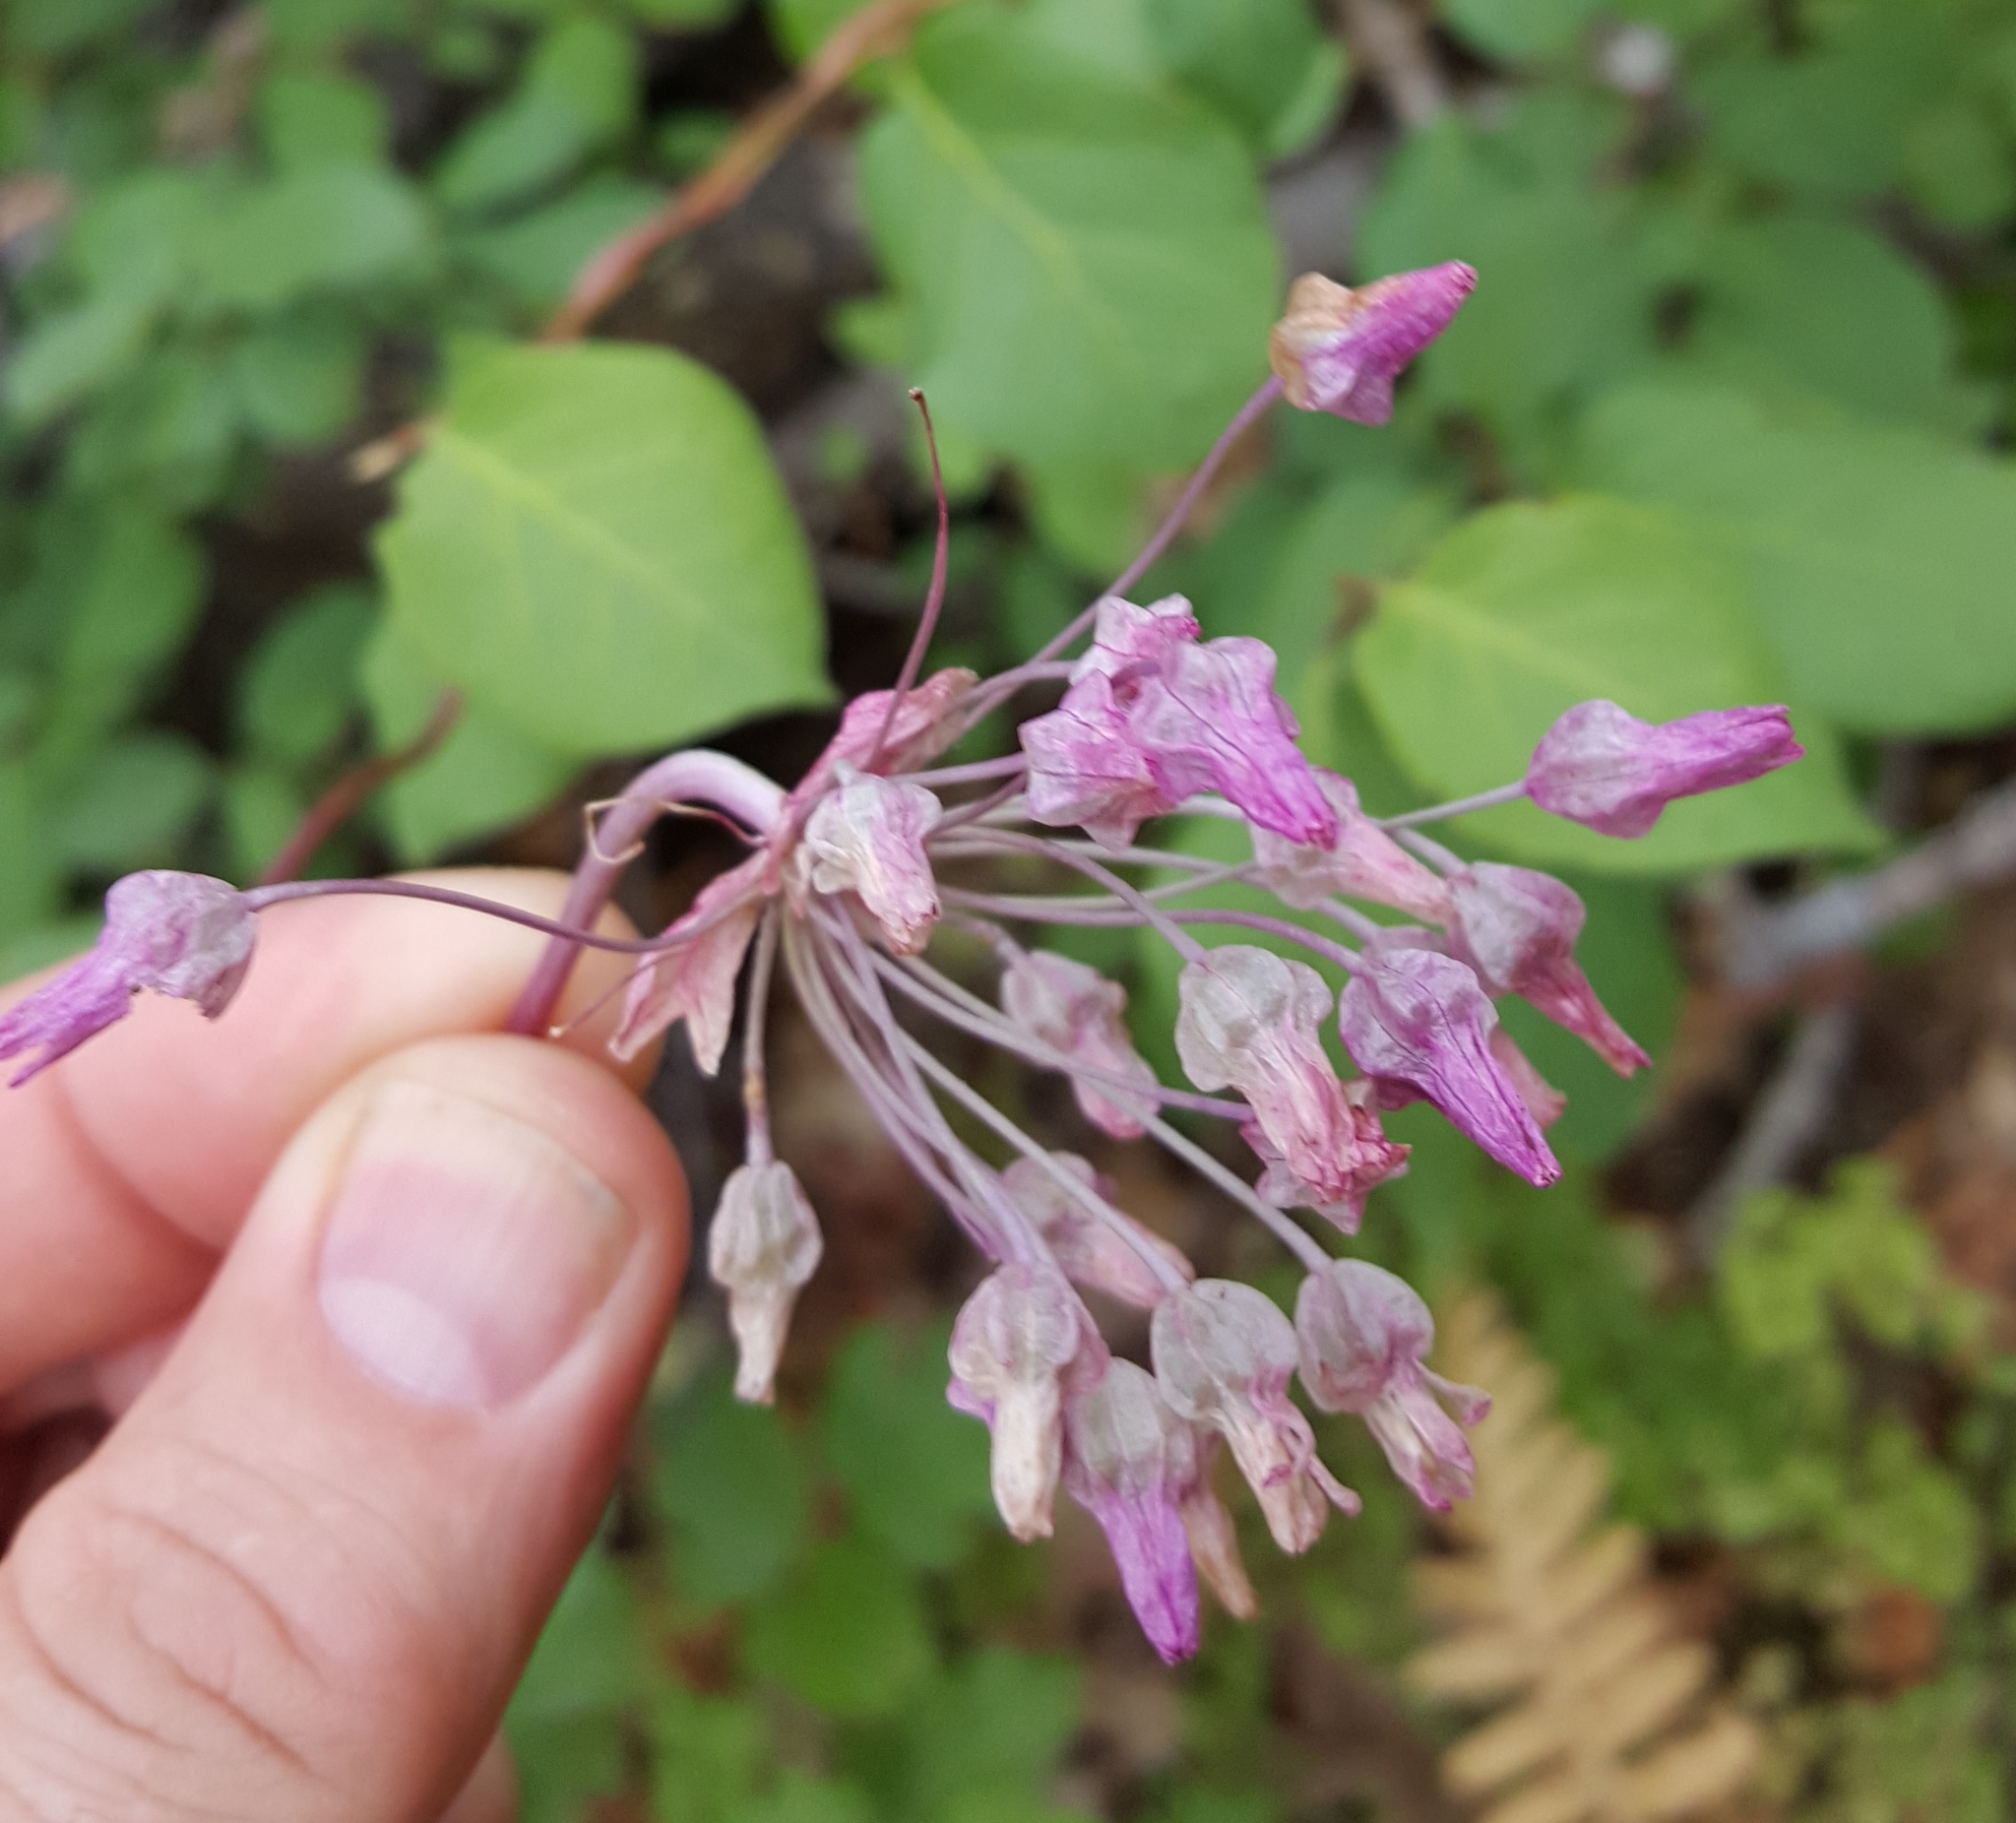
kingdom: Plantae
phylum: Tracheophyta
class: Liliopsida
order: Asparagales
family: Asparagaceae
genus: Dichelostemma
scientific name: Dichelostemma volubile
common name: Trining brodiaea
